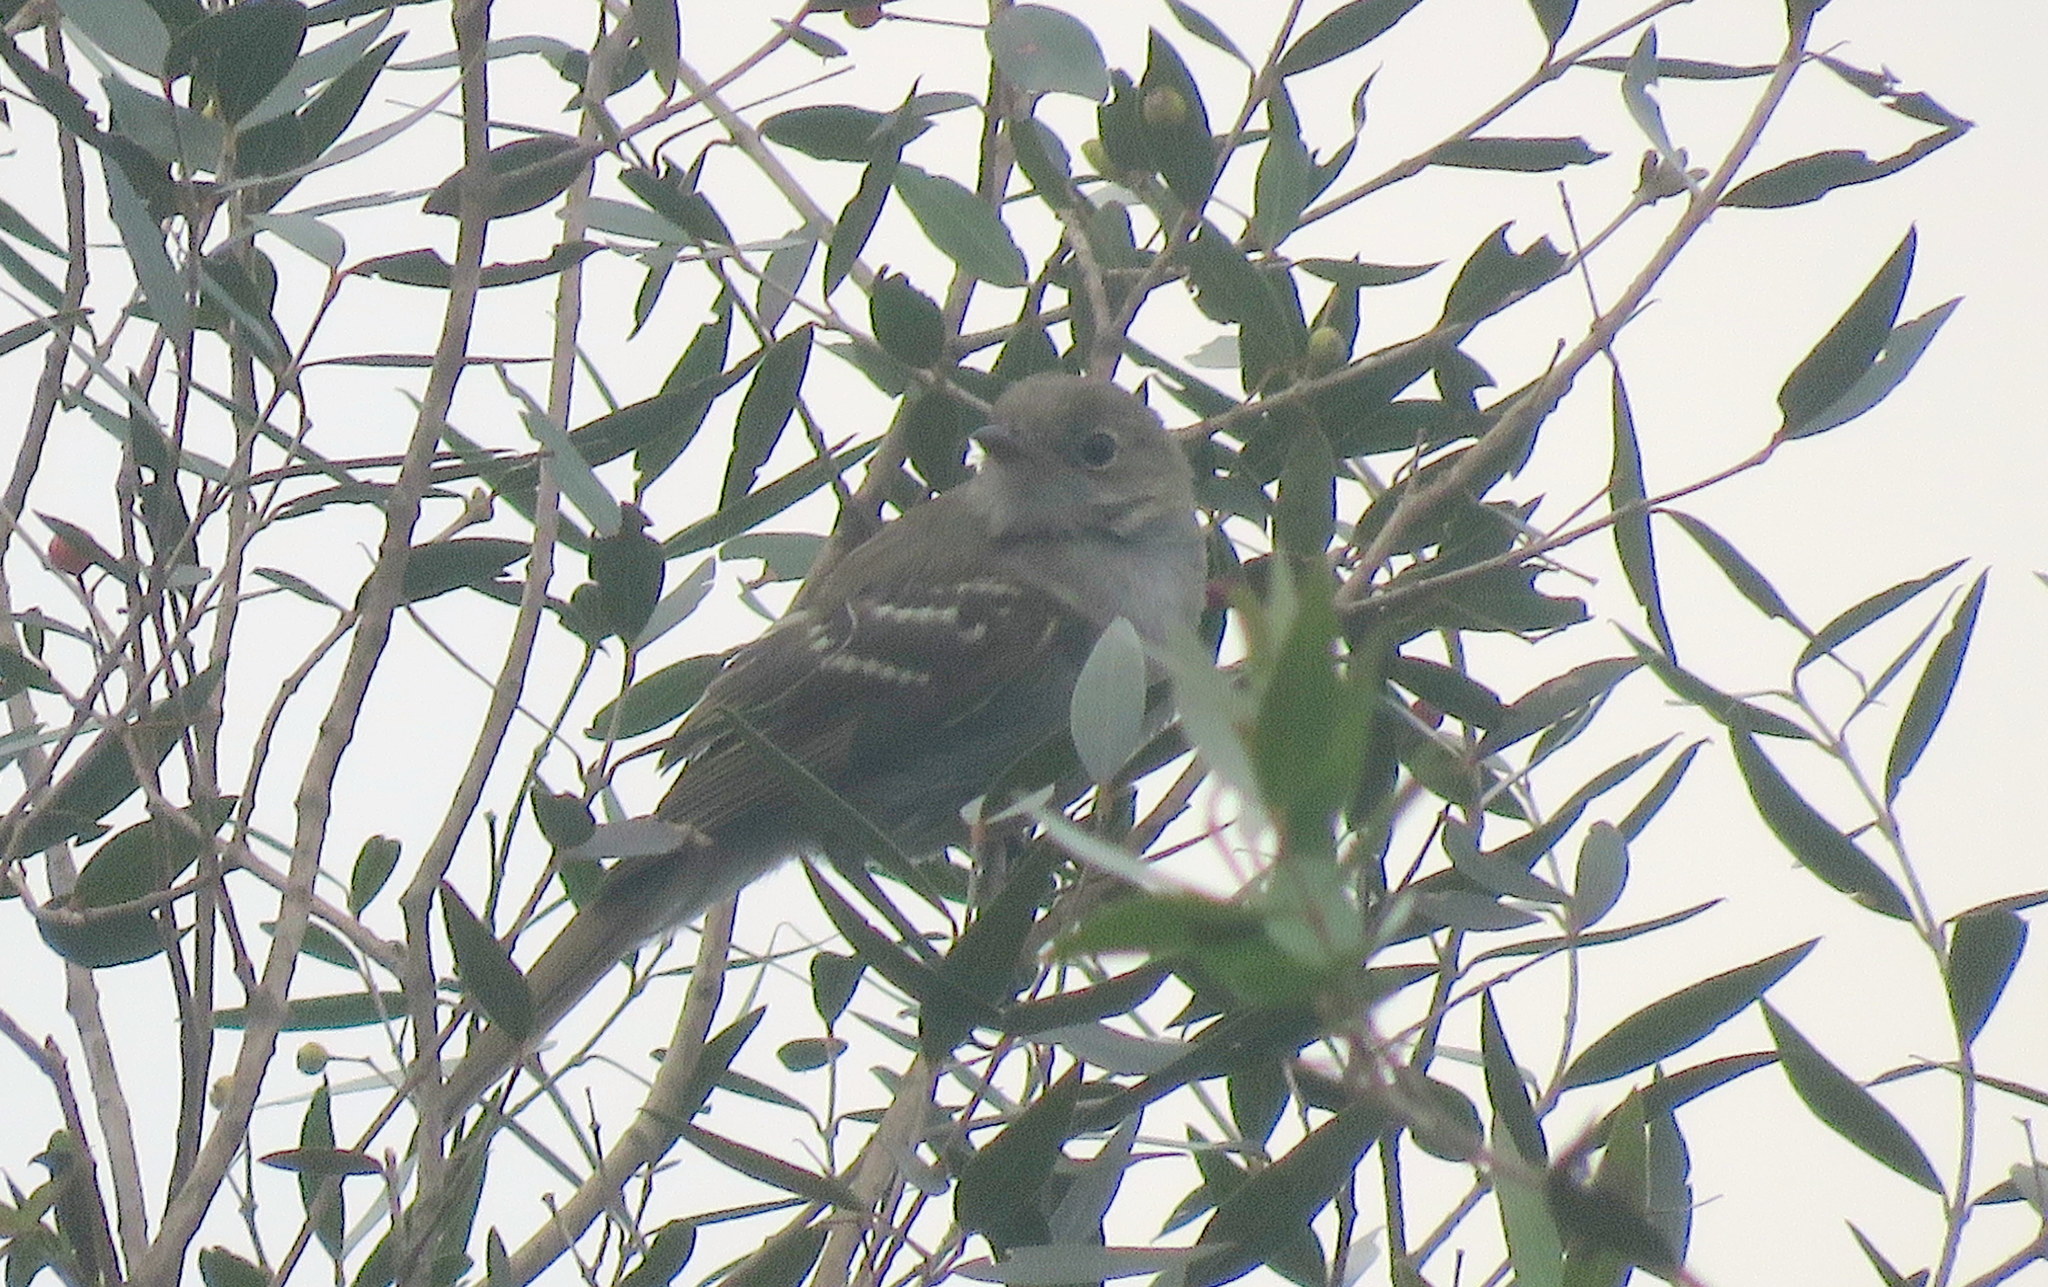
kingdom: Animalia
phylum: Chordata
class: Aves
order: Passeriformes
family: Tyrannidae
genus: Elaenia
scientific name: Elaenia parvirostris
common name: Small-billed elaenia
